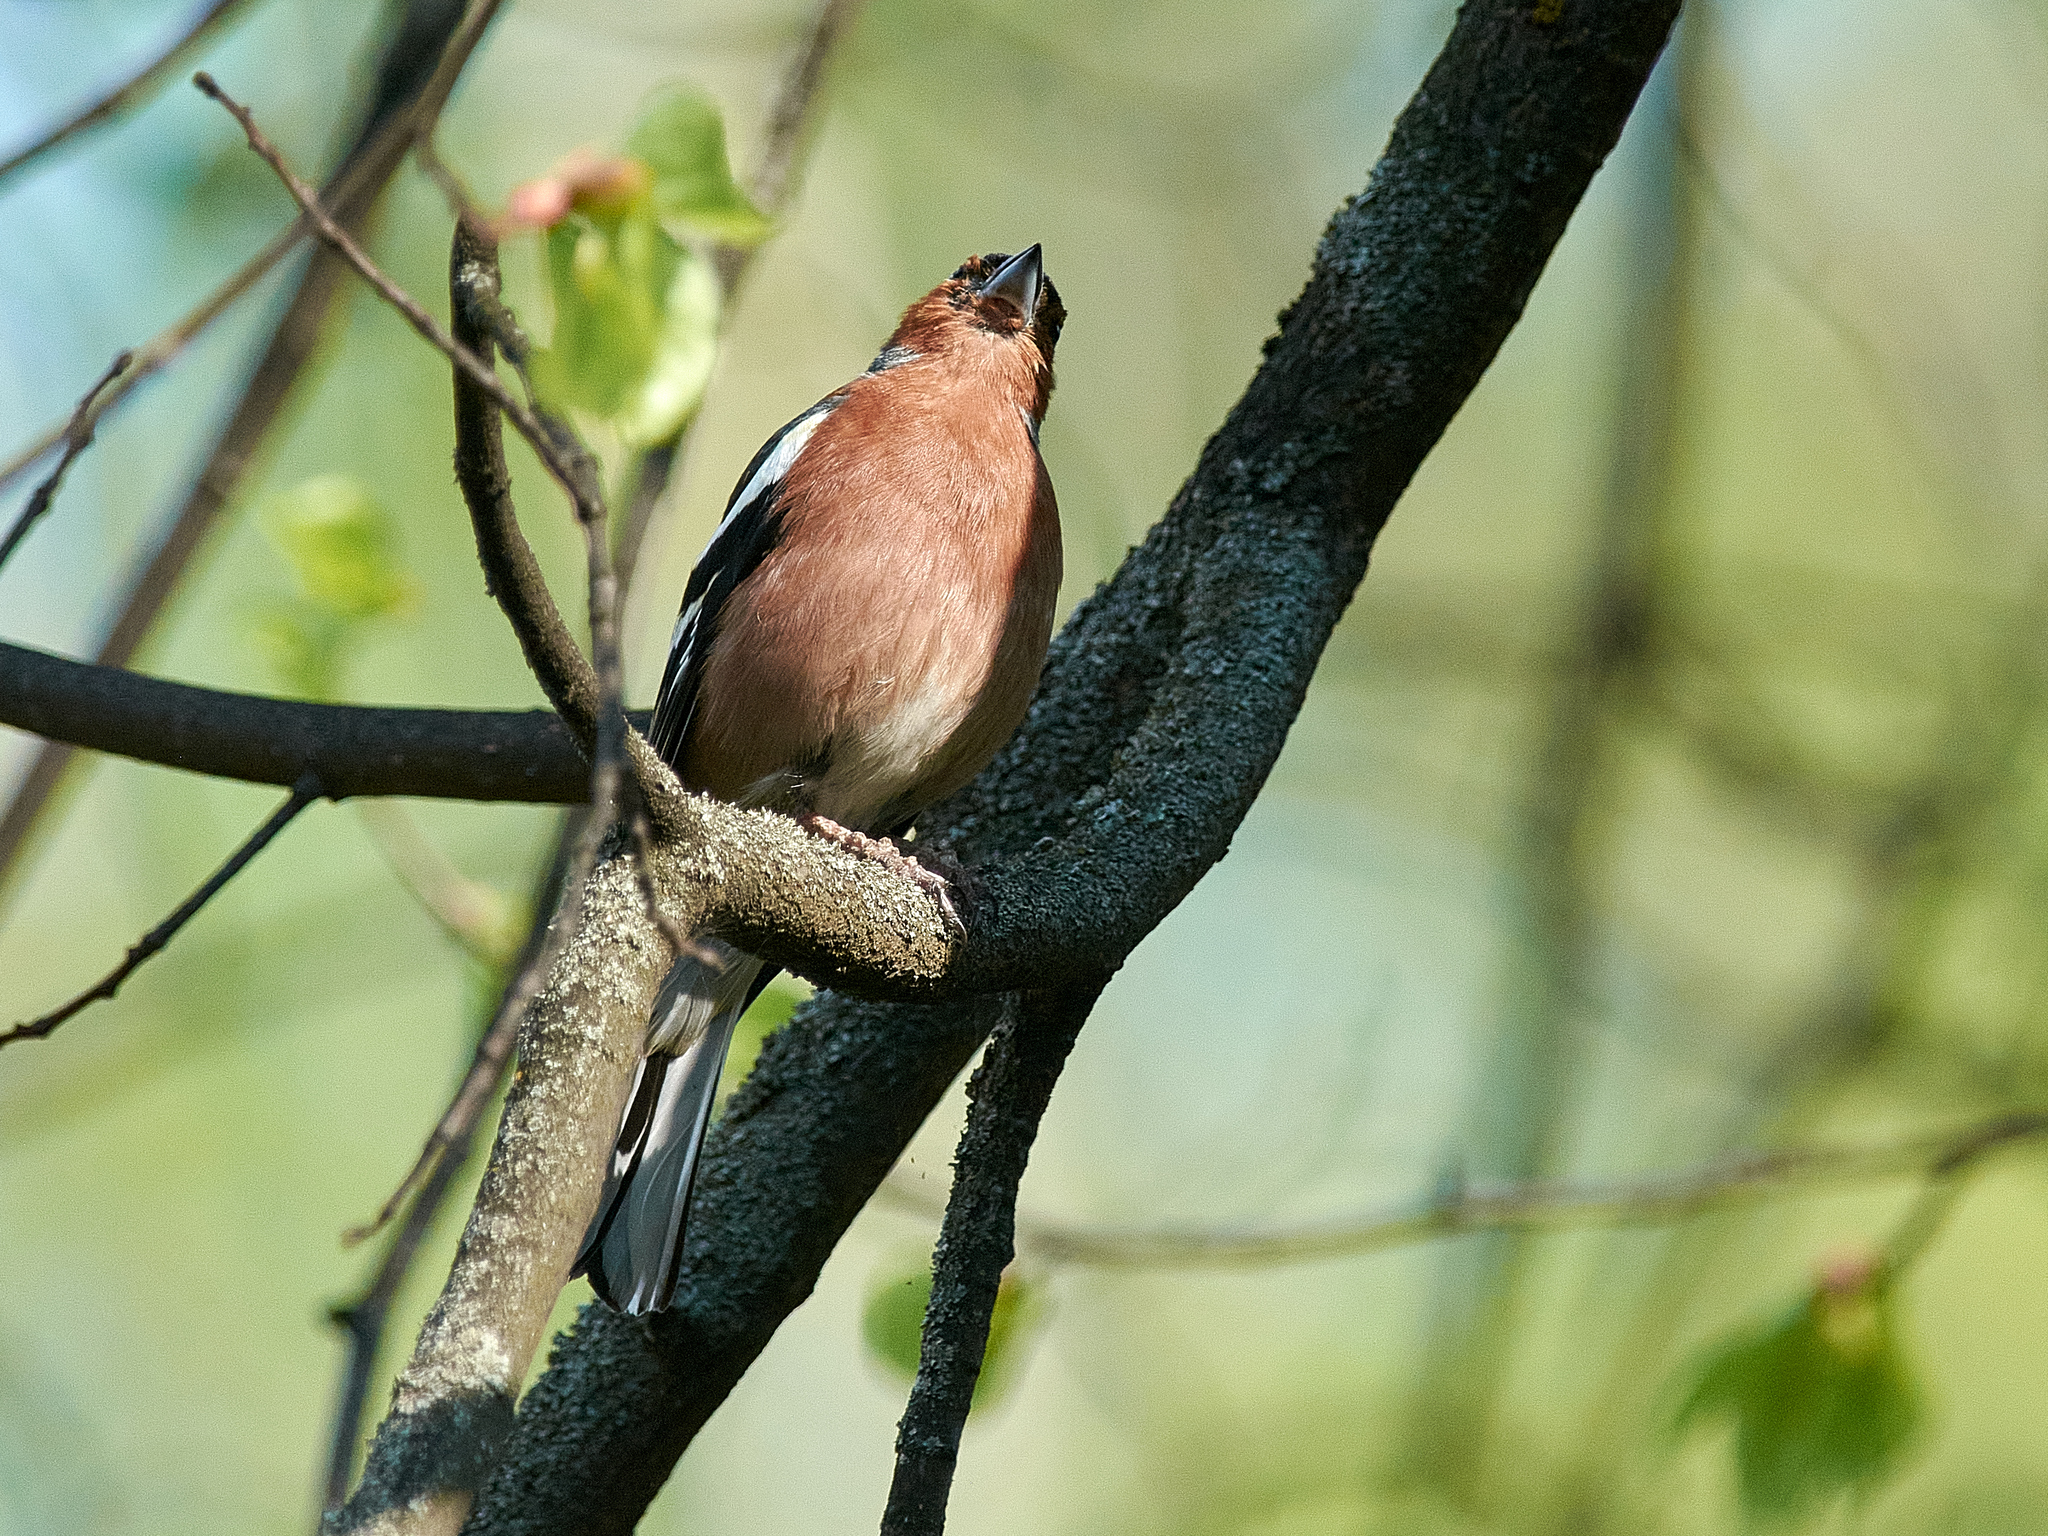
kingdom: Animalia
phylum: Chordata
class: Aves
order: Passeriformes
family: Fringillidae
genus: Fringilla
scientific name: Fringilla coelebs
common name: Common chaffinch
